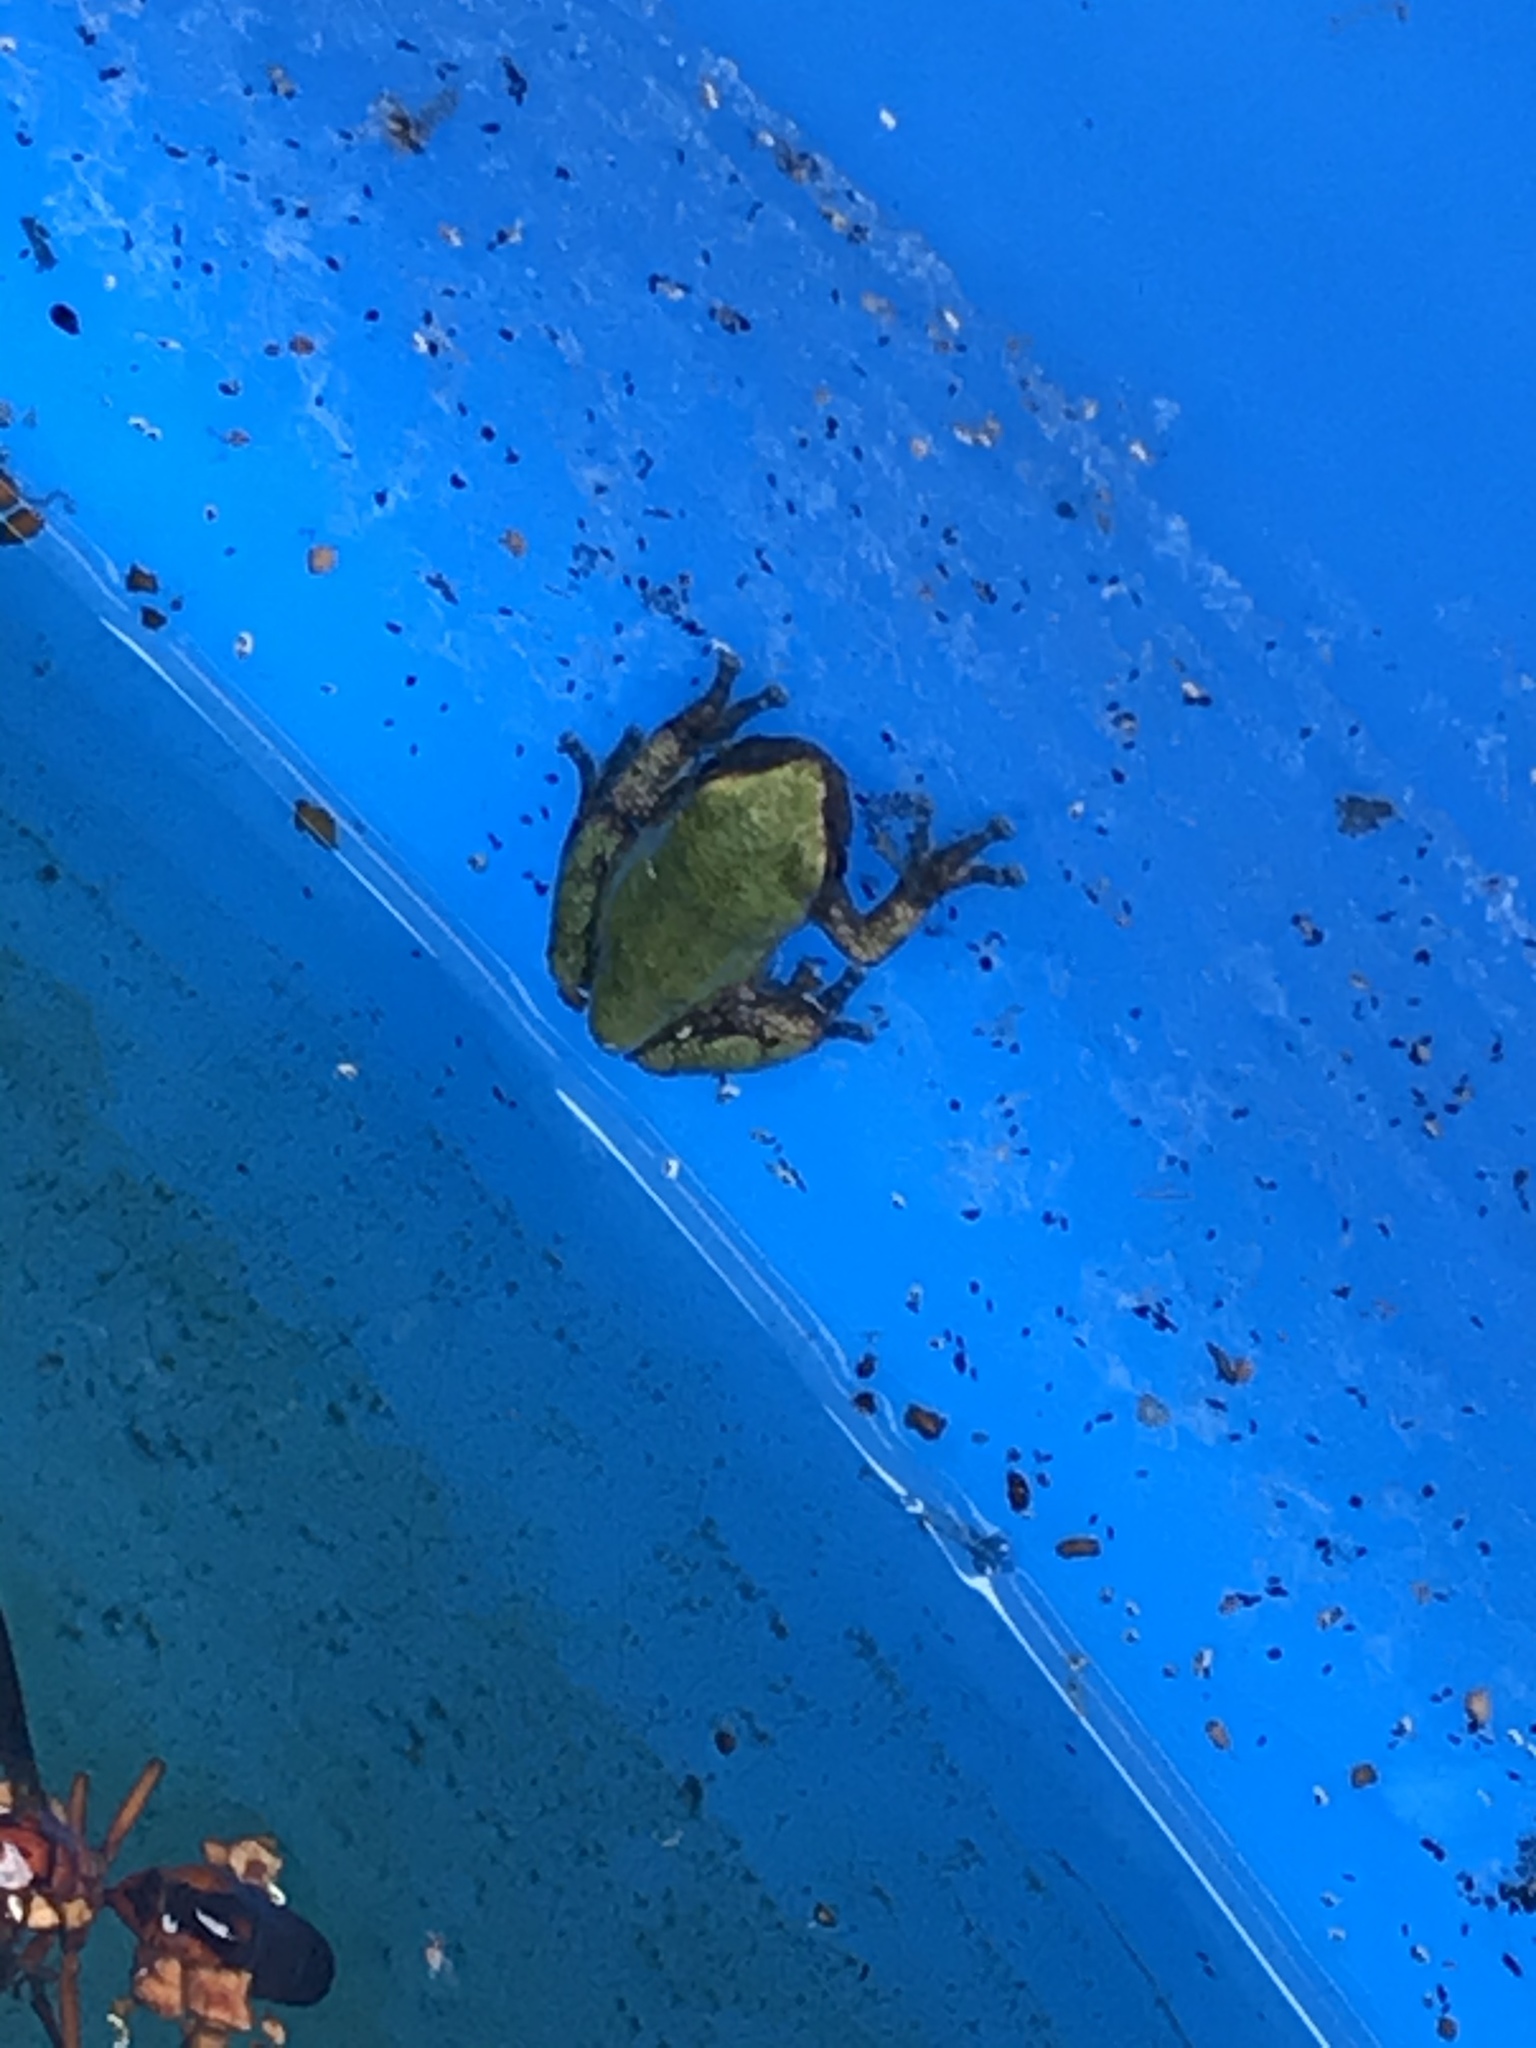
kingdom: Animalia
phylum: Chordata
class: Amphibia
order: Anura
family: Hylidae
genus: Dryophytes
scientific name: Dryophytes chrysoscelis
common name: Cope's gray treefrog
